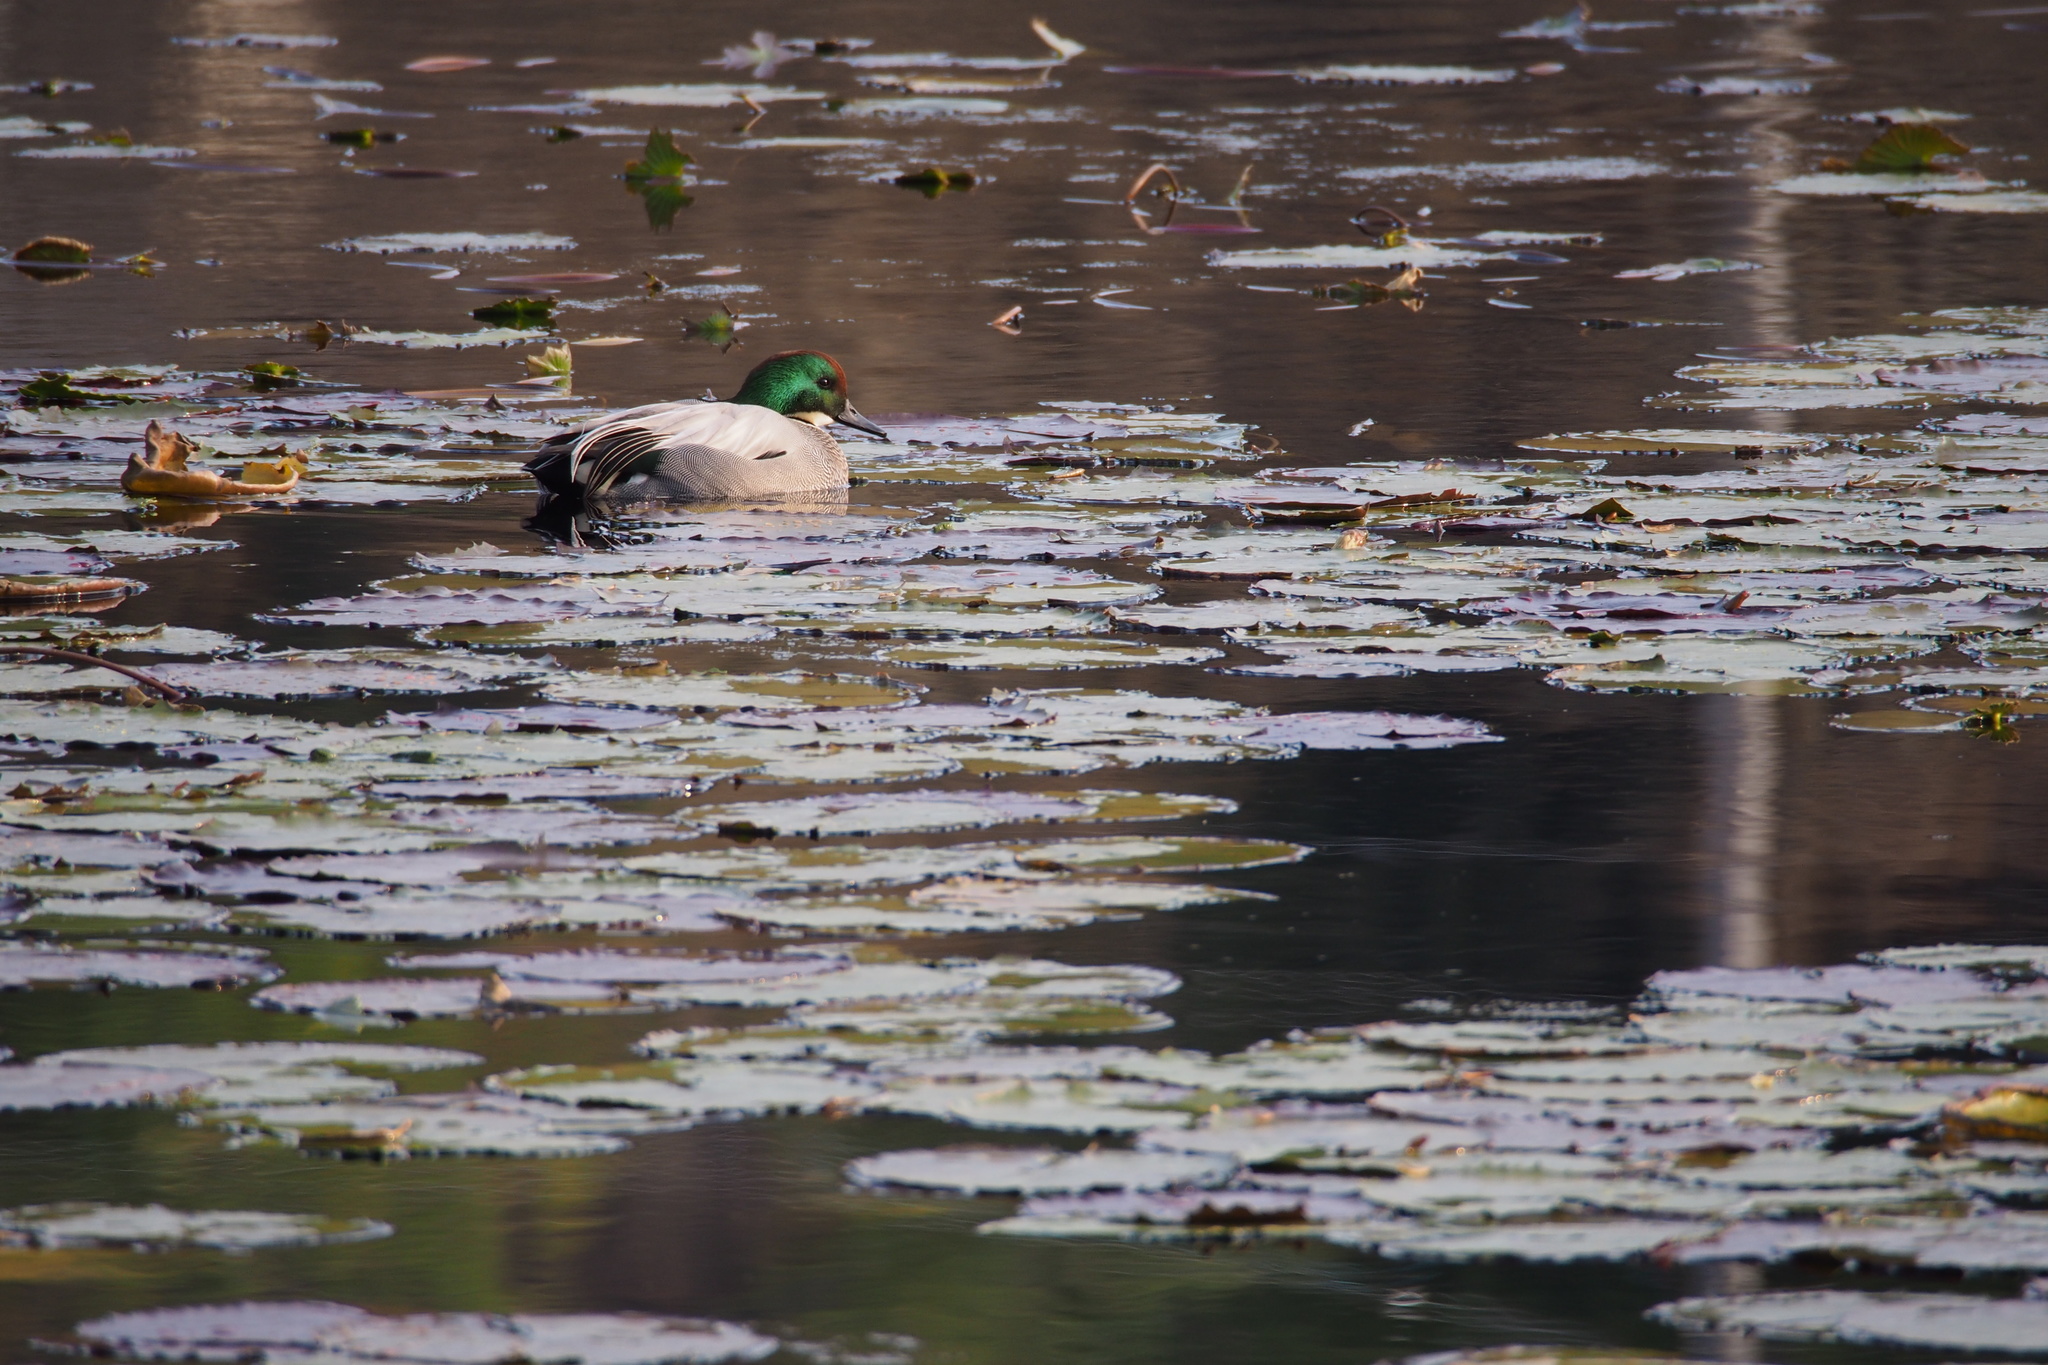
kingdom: Animalia
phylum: Chordata
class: Aves
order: Anseriformes
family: Anatidae
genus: Mareca
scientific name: Mareca falcata
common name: Falcated duck
